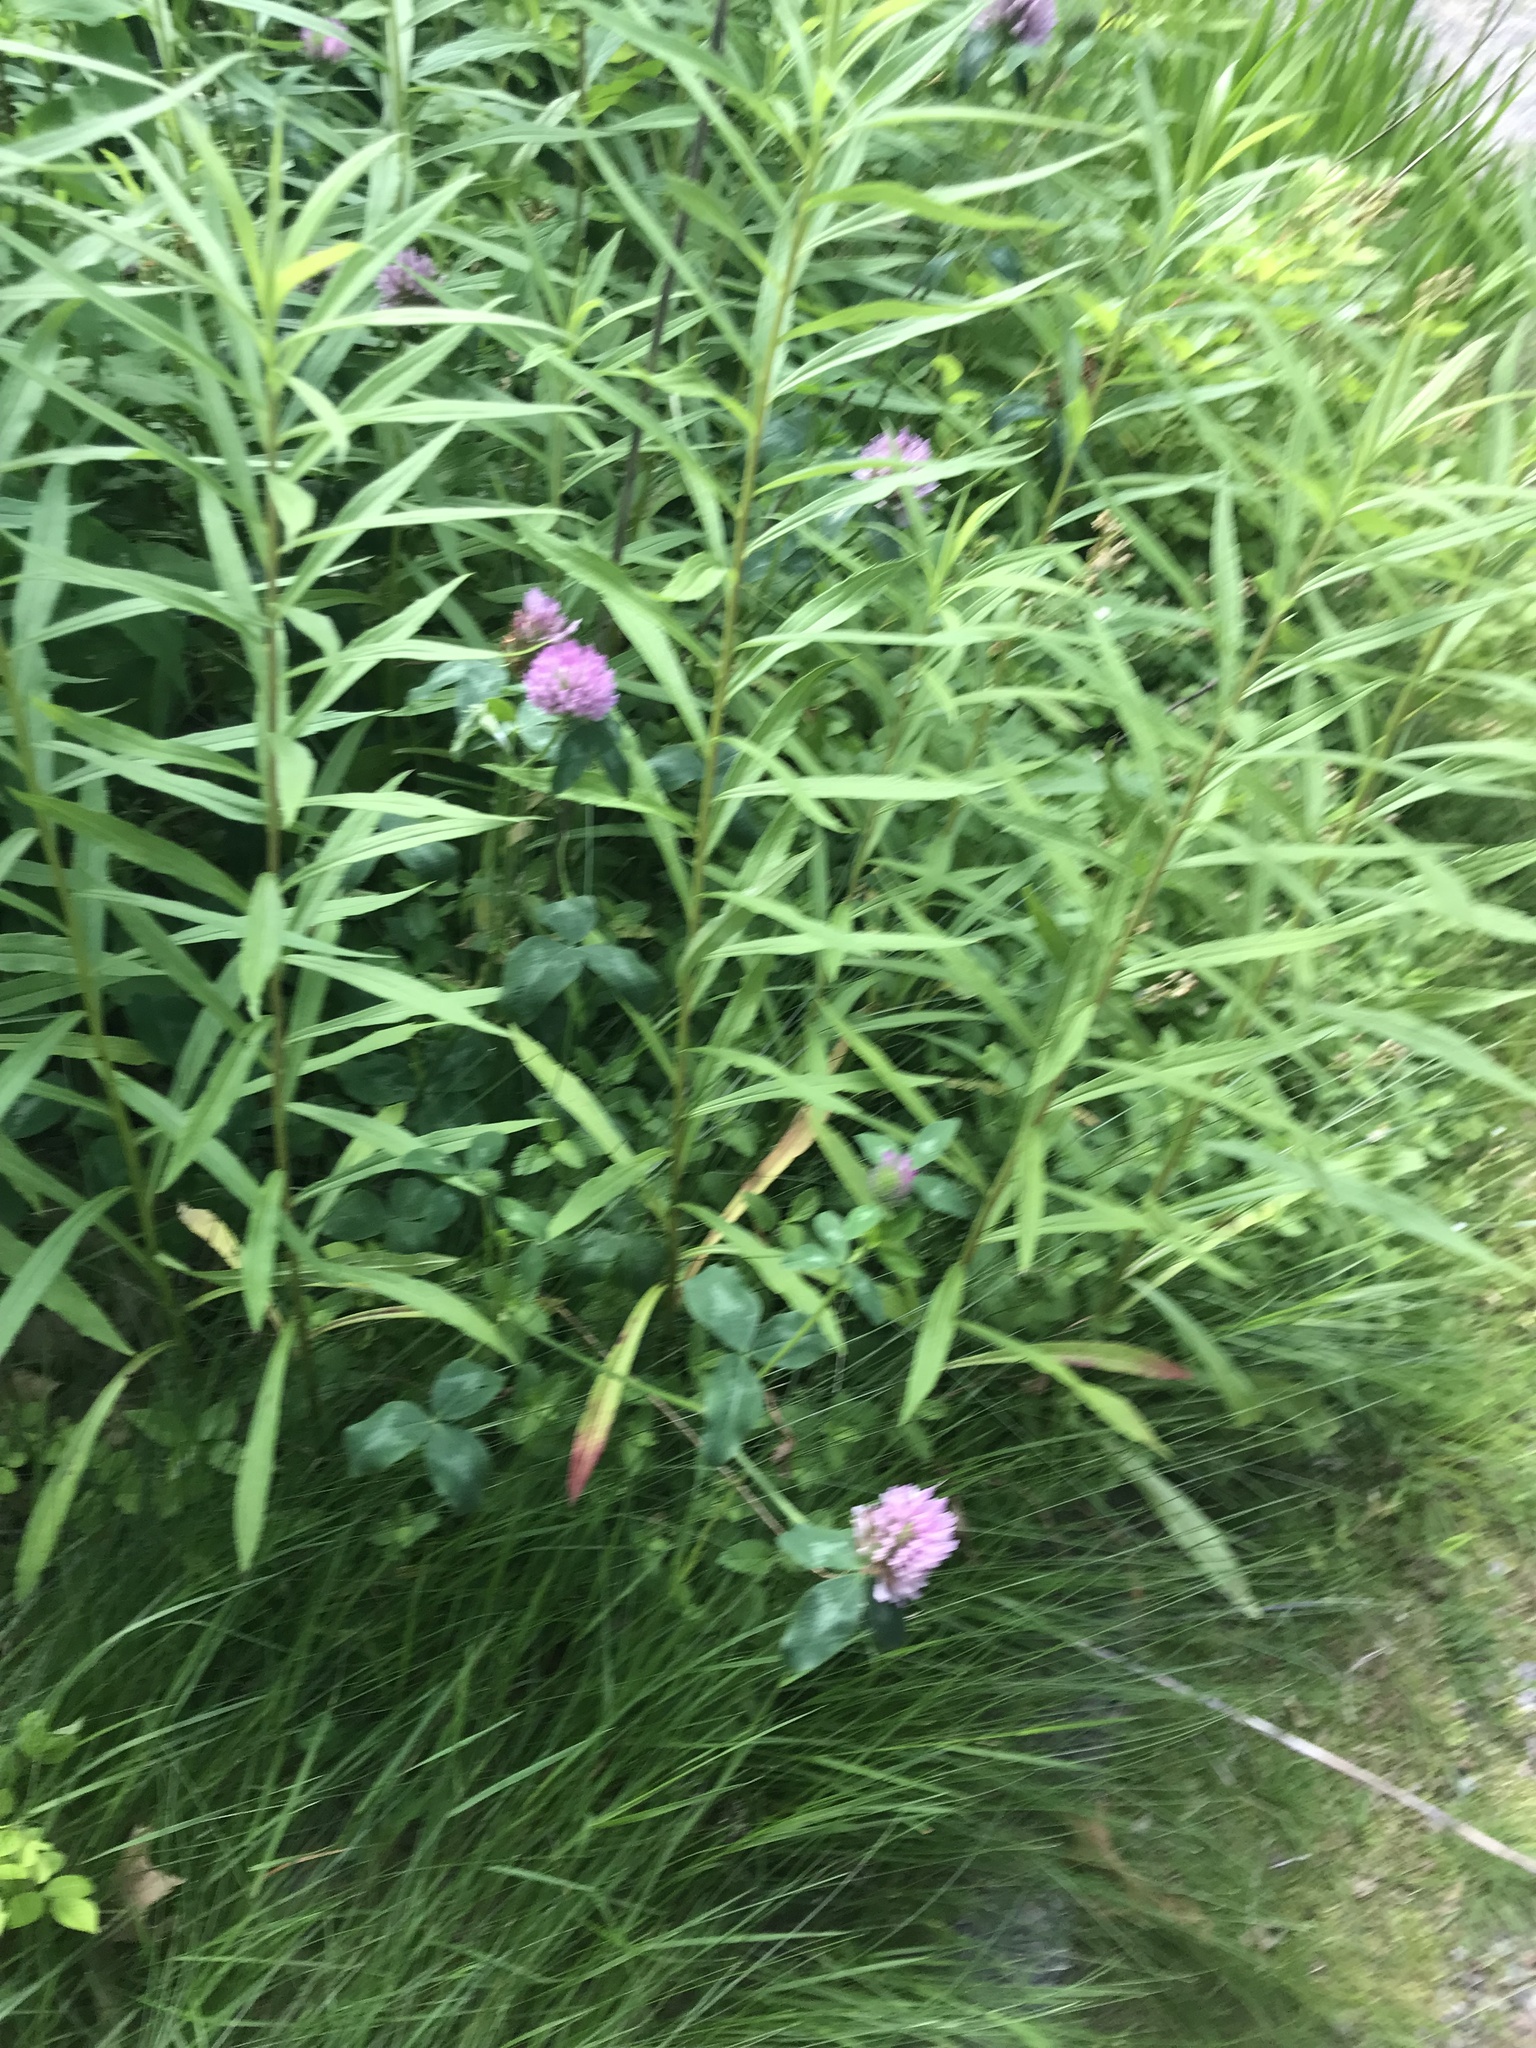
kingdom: Plantae
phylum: Tracheophyta
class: Magnoliopsida
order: Fabales
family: Fabaceae
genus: Trifolium
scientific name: Trifolium pratense
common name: Red clover
